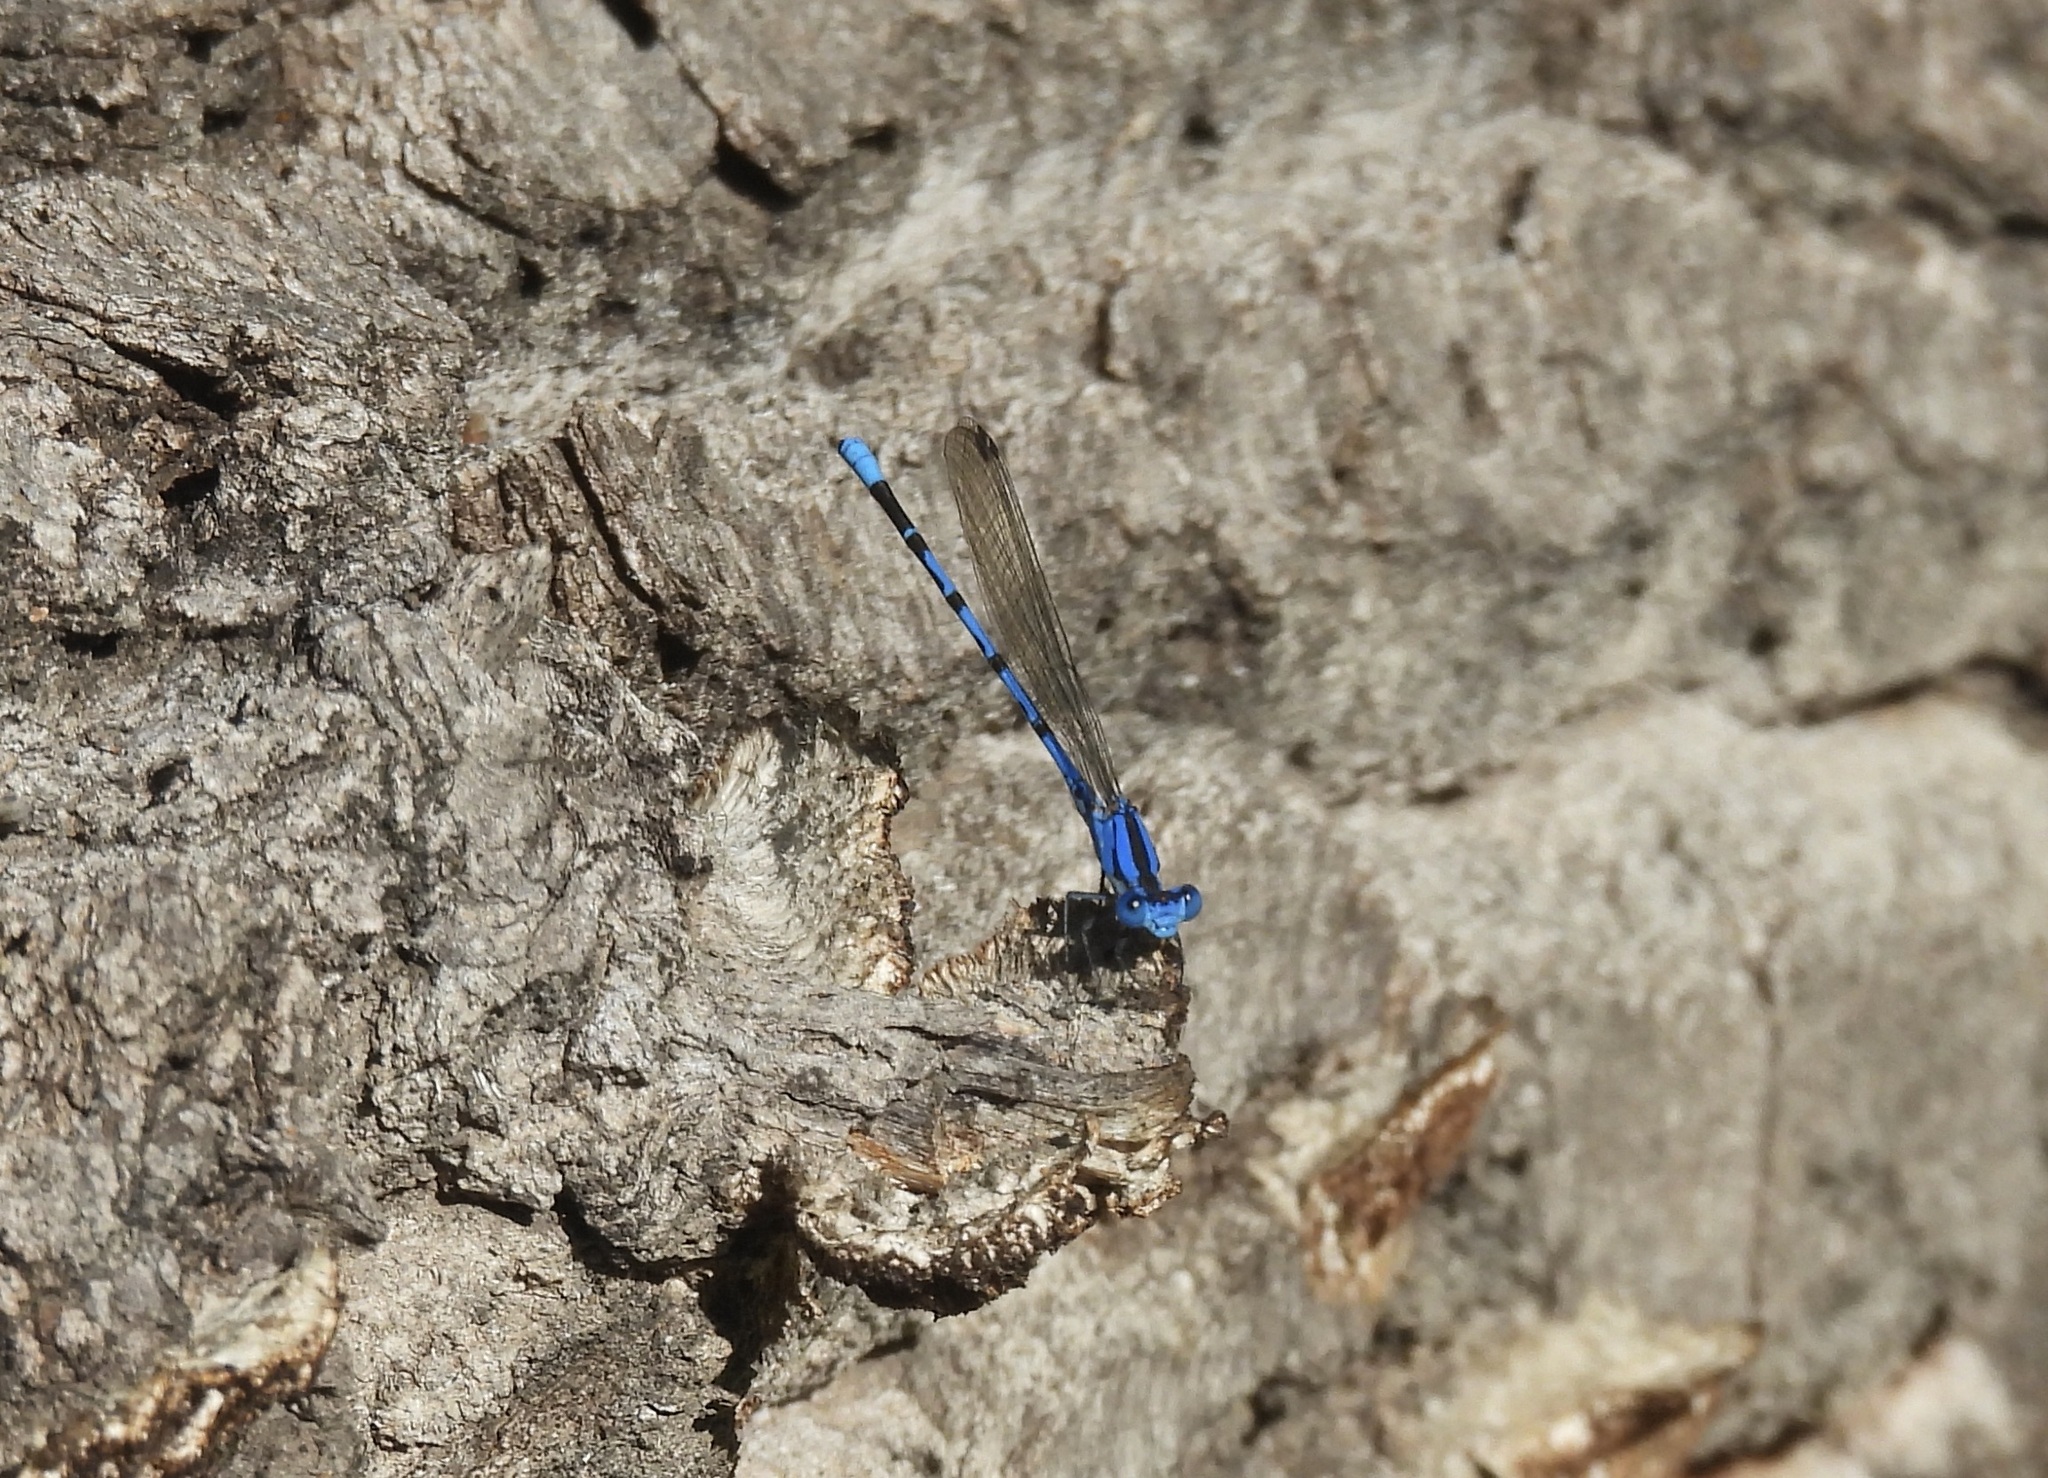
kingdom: Animalia
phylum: Arthropoda
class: Insecta
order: Odonata
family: Coenagrionidae
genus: Argia
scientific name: Argia funebris
